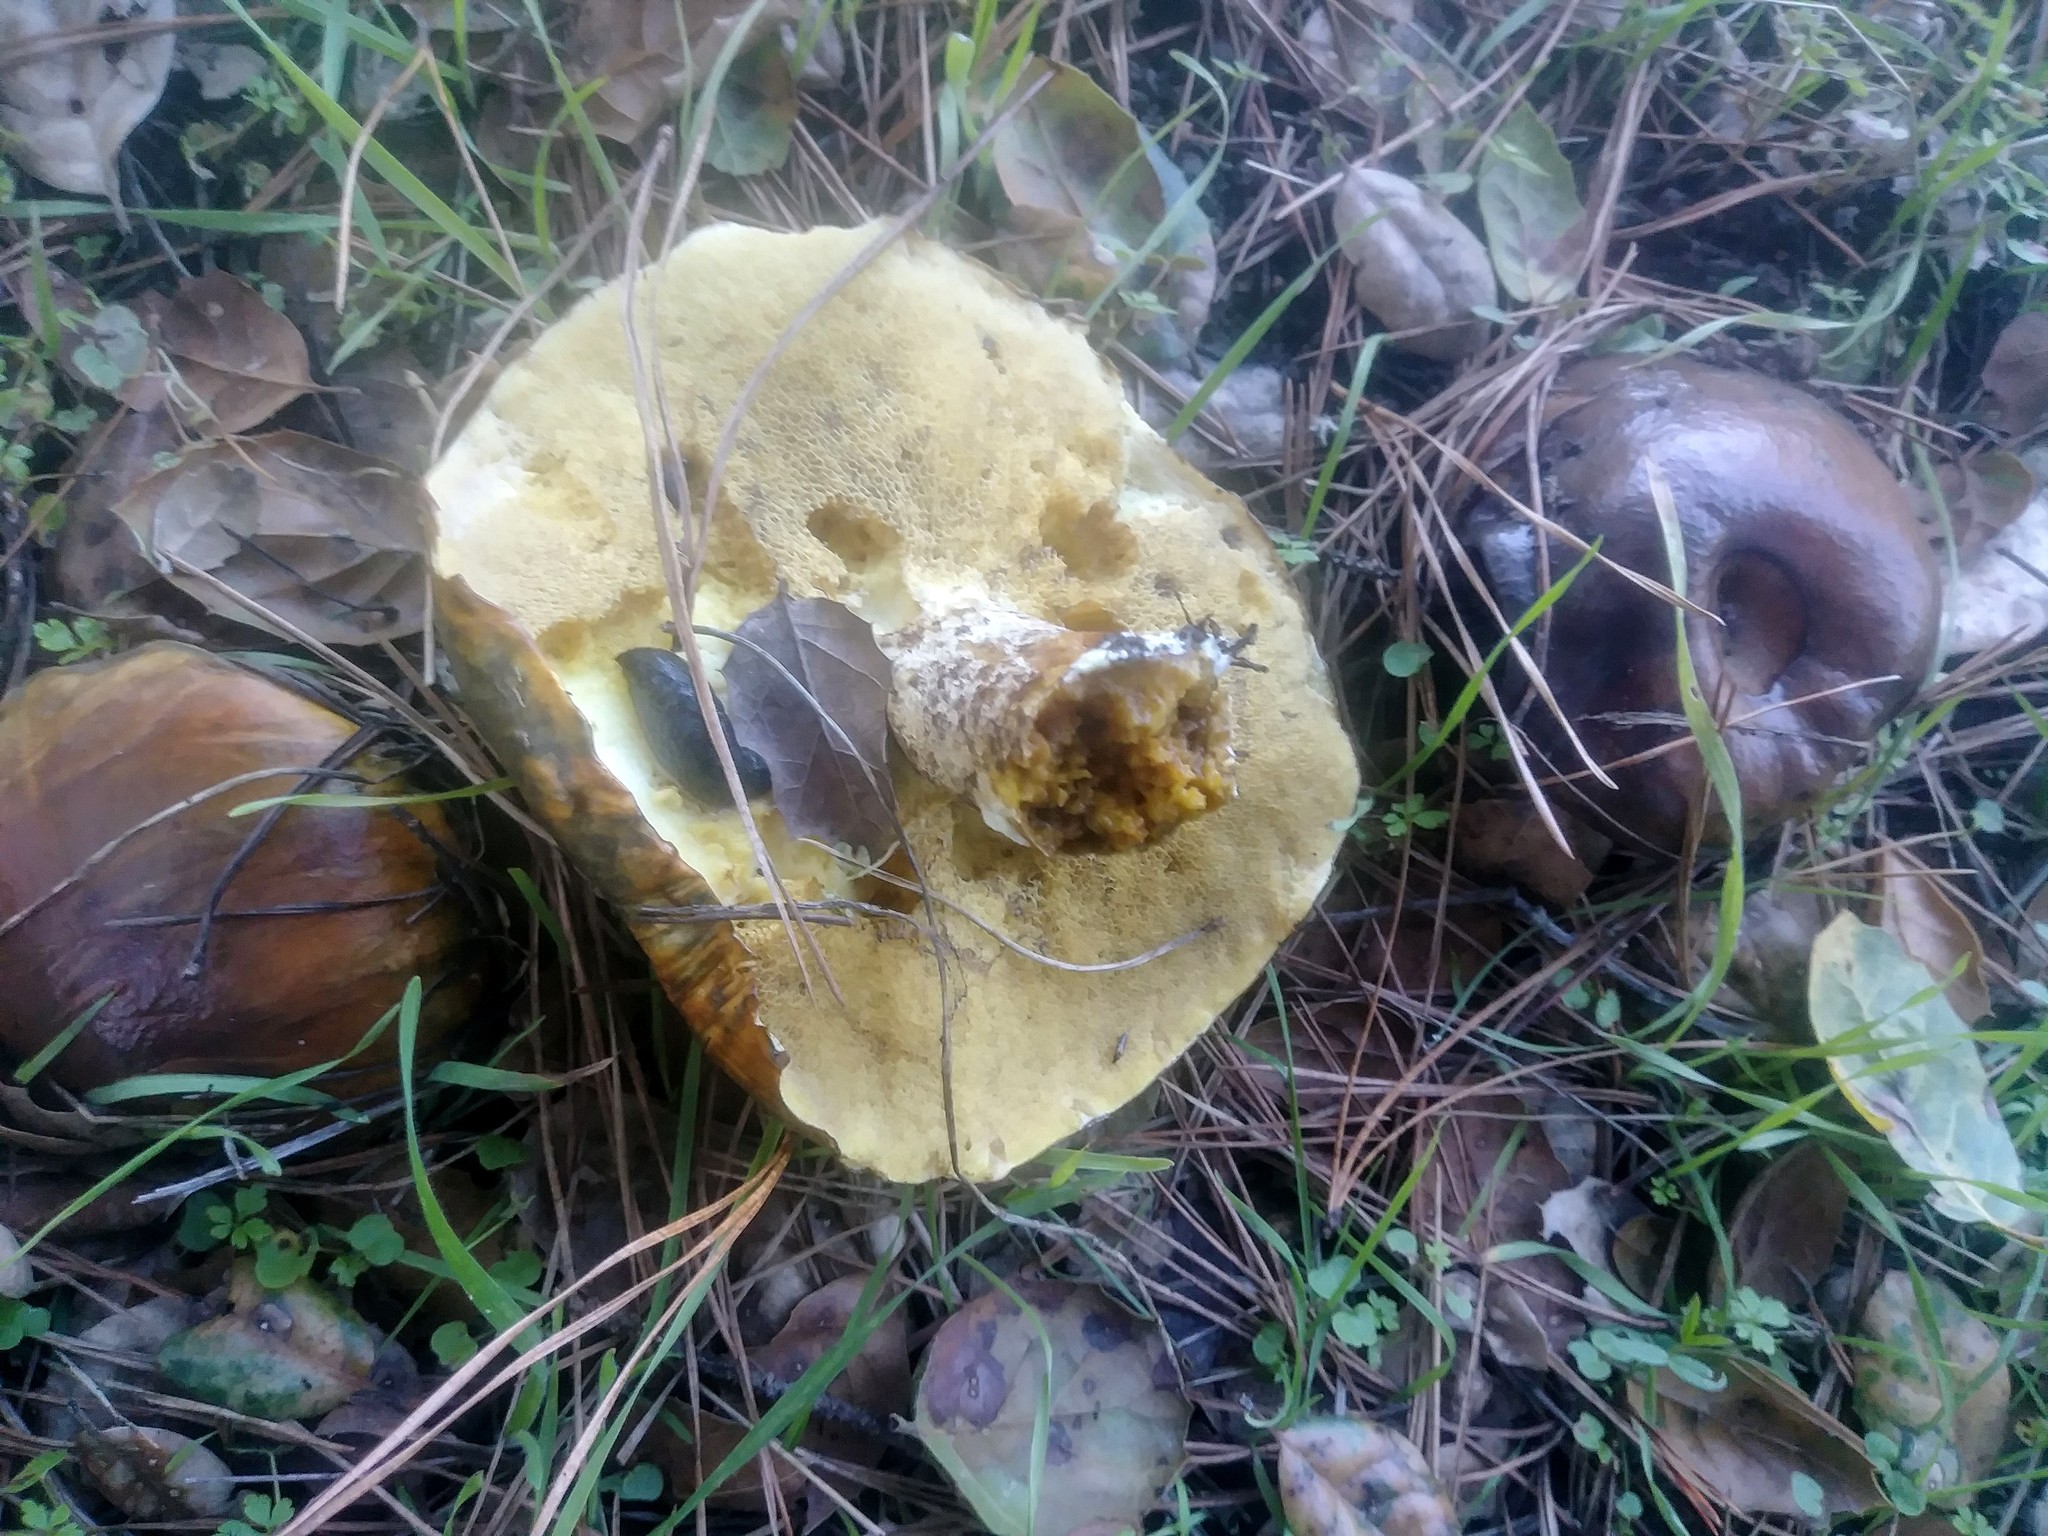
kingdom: Fungi
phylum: Basidiomycota
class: Agaricomycetes
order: Boletales
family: Suillaceae
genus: Suillus
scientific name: Suillus pungens
